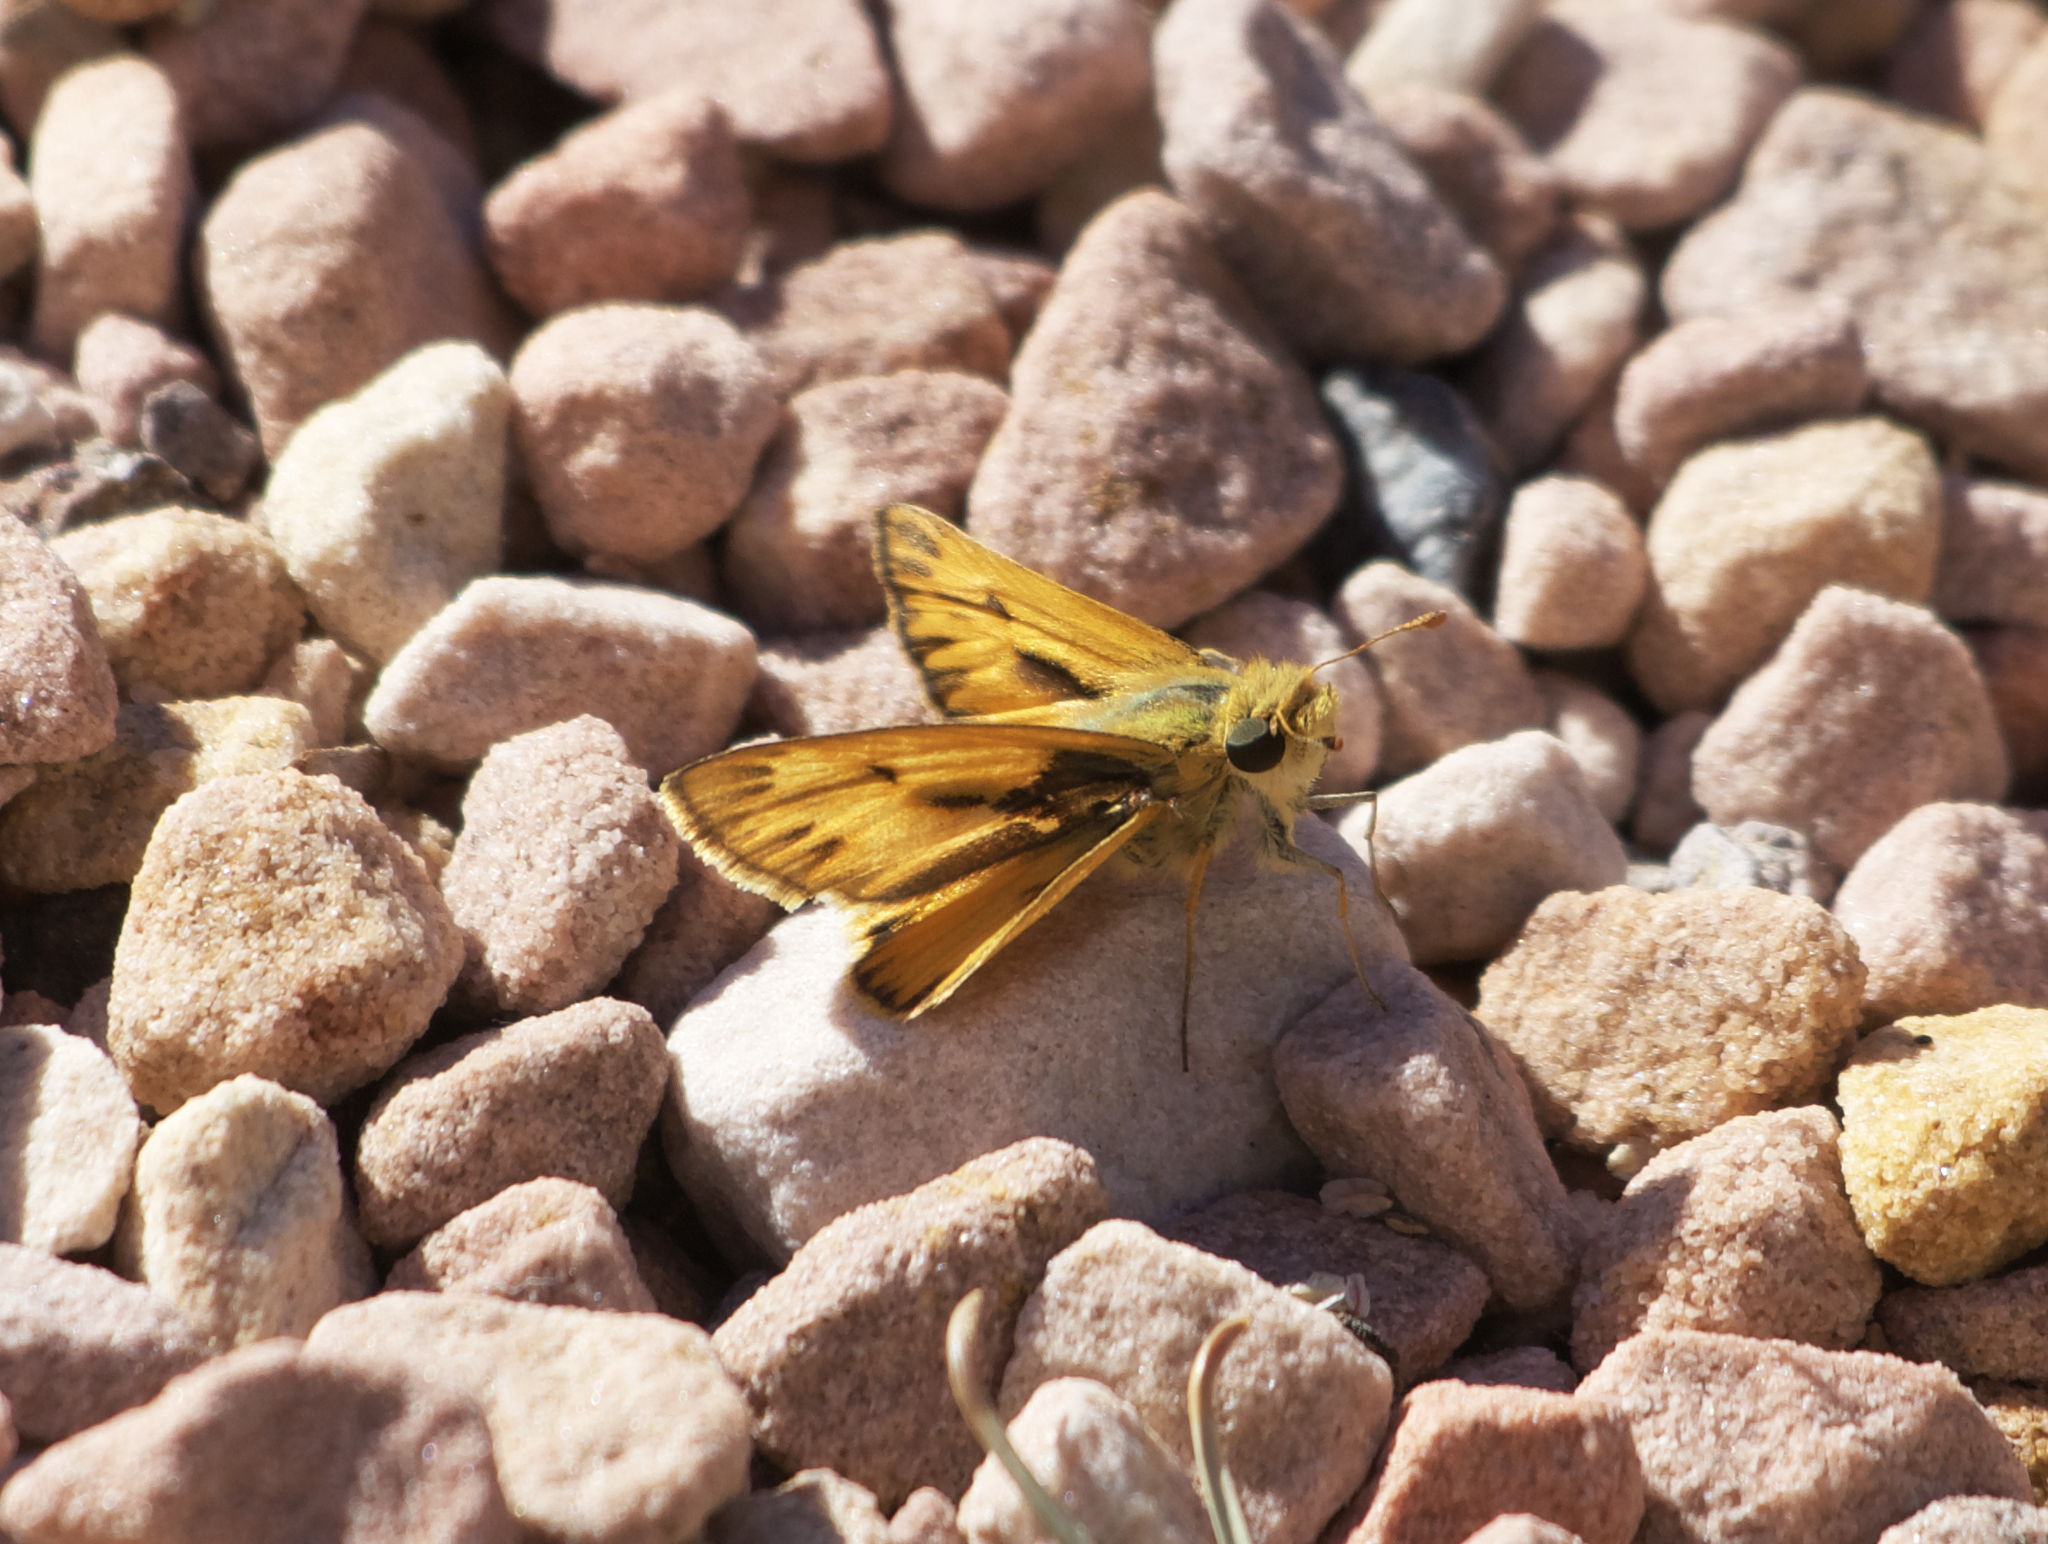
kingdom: Animalia
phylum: Arthropoda
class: Insecta
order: Lepidoptera
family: Hesperiidae
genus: Hylephila
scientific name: Hylephila phyleus
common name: Fiery skipper
